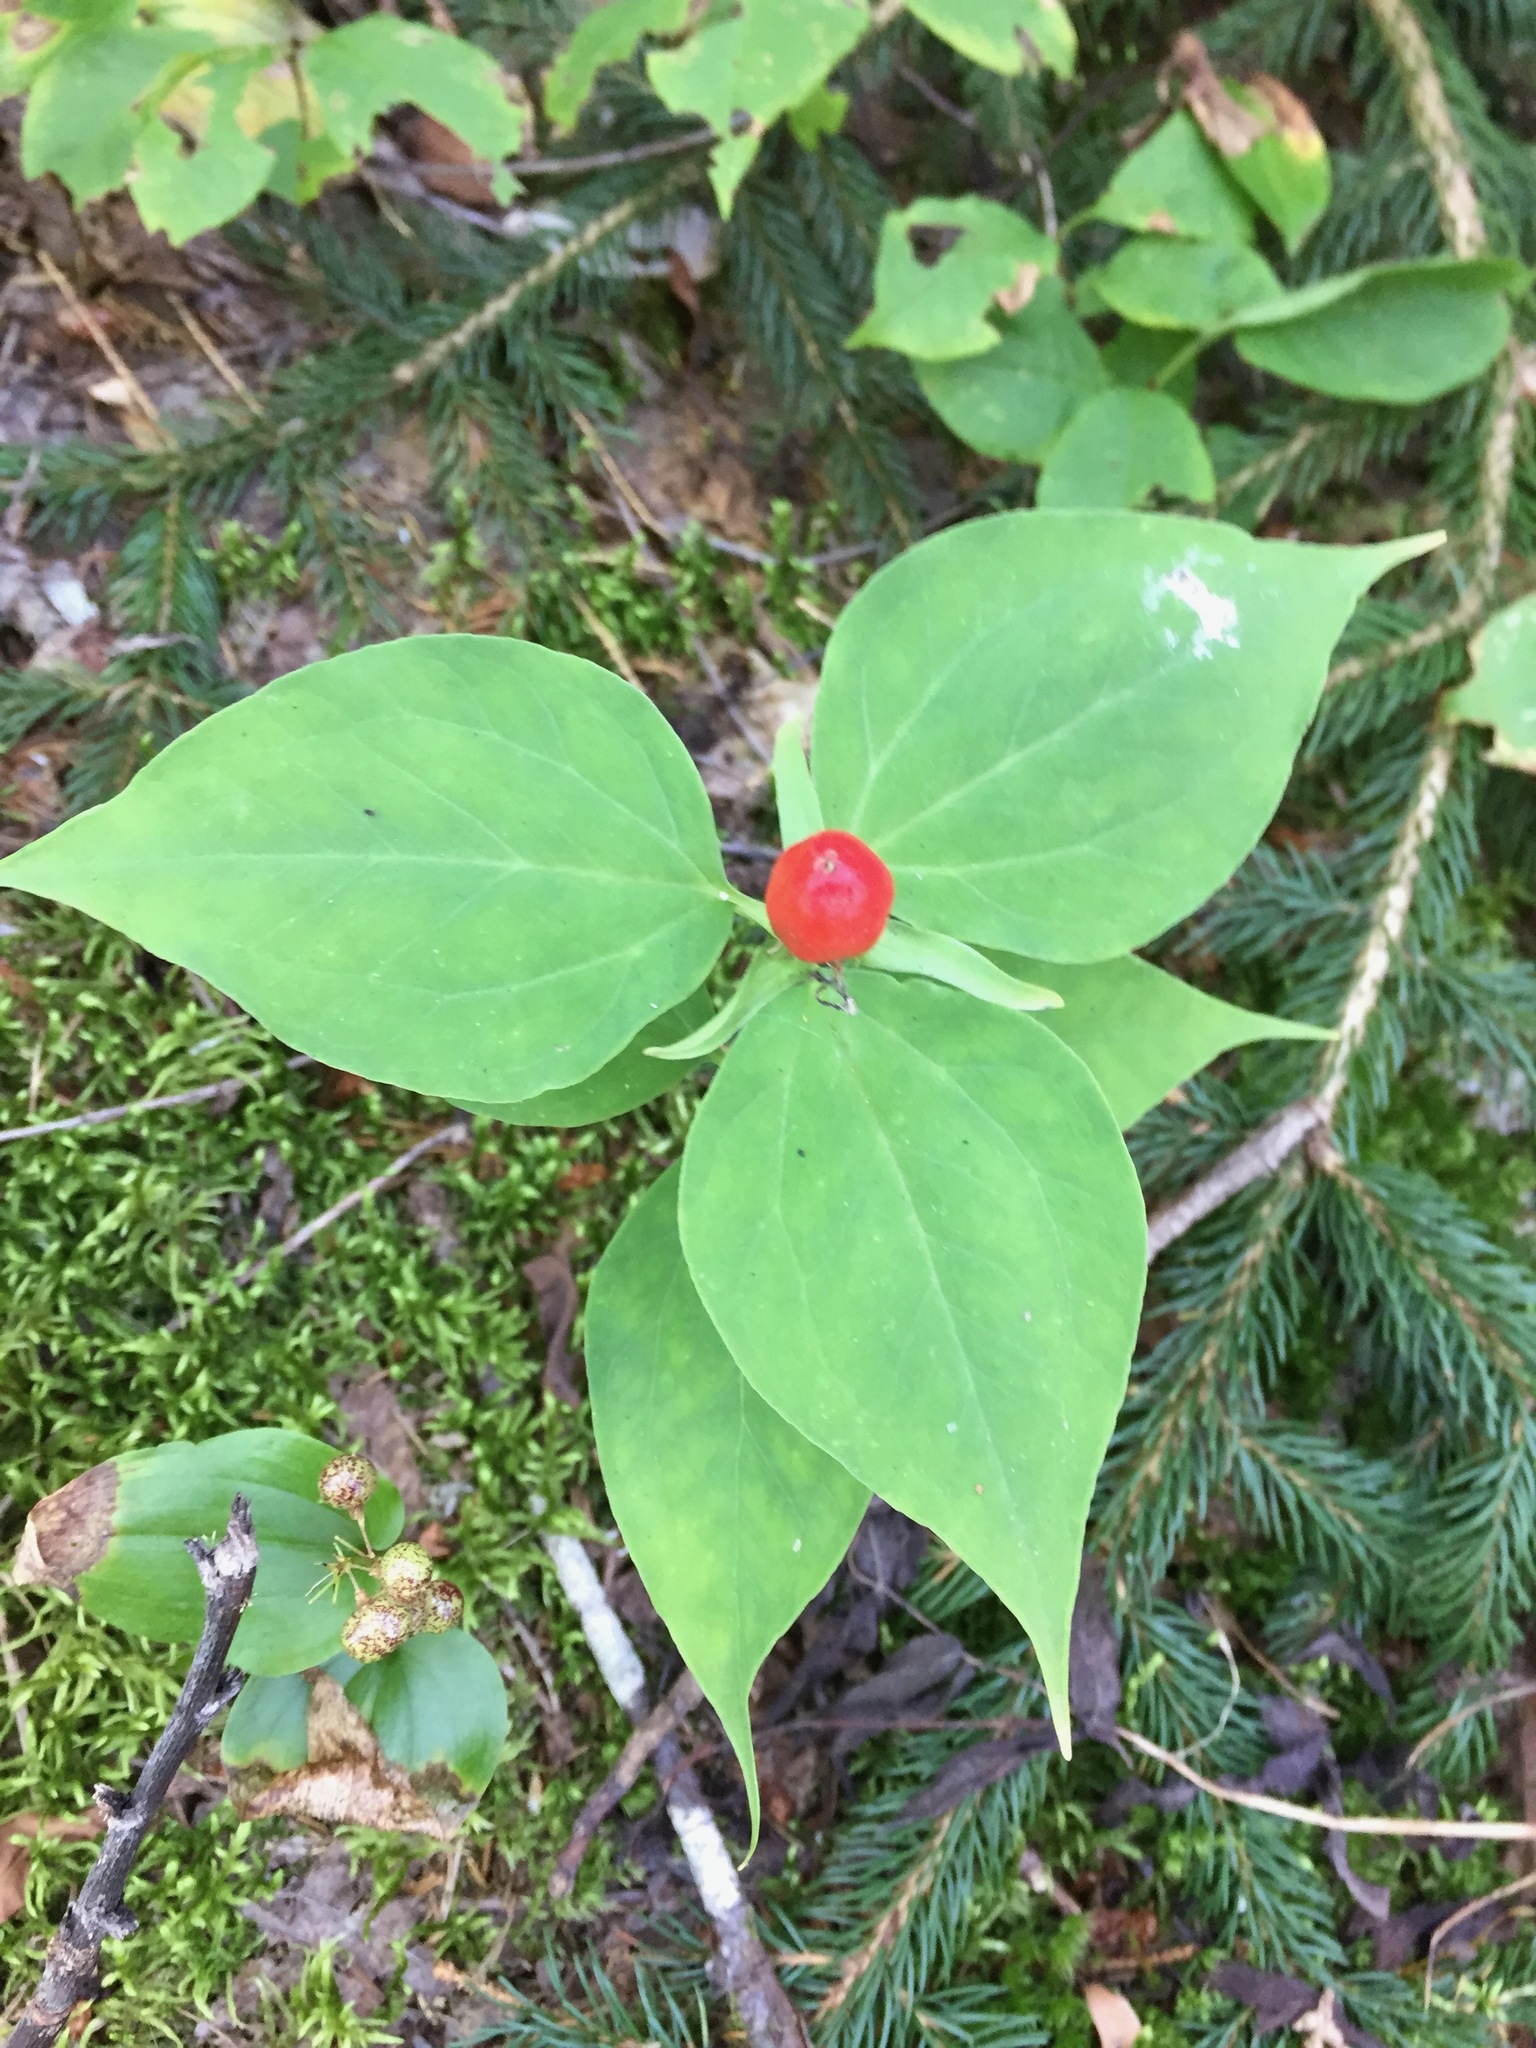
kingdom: Plantae
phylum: Tracheophyta
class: Liliopsida
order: Liliales
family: Melanthiaceae
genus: Trillium
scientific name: Trillium undulatum
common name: Paint trillium
